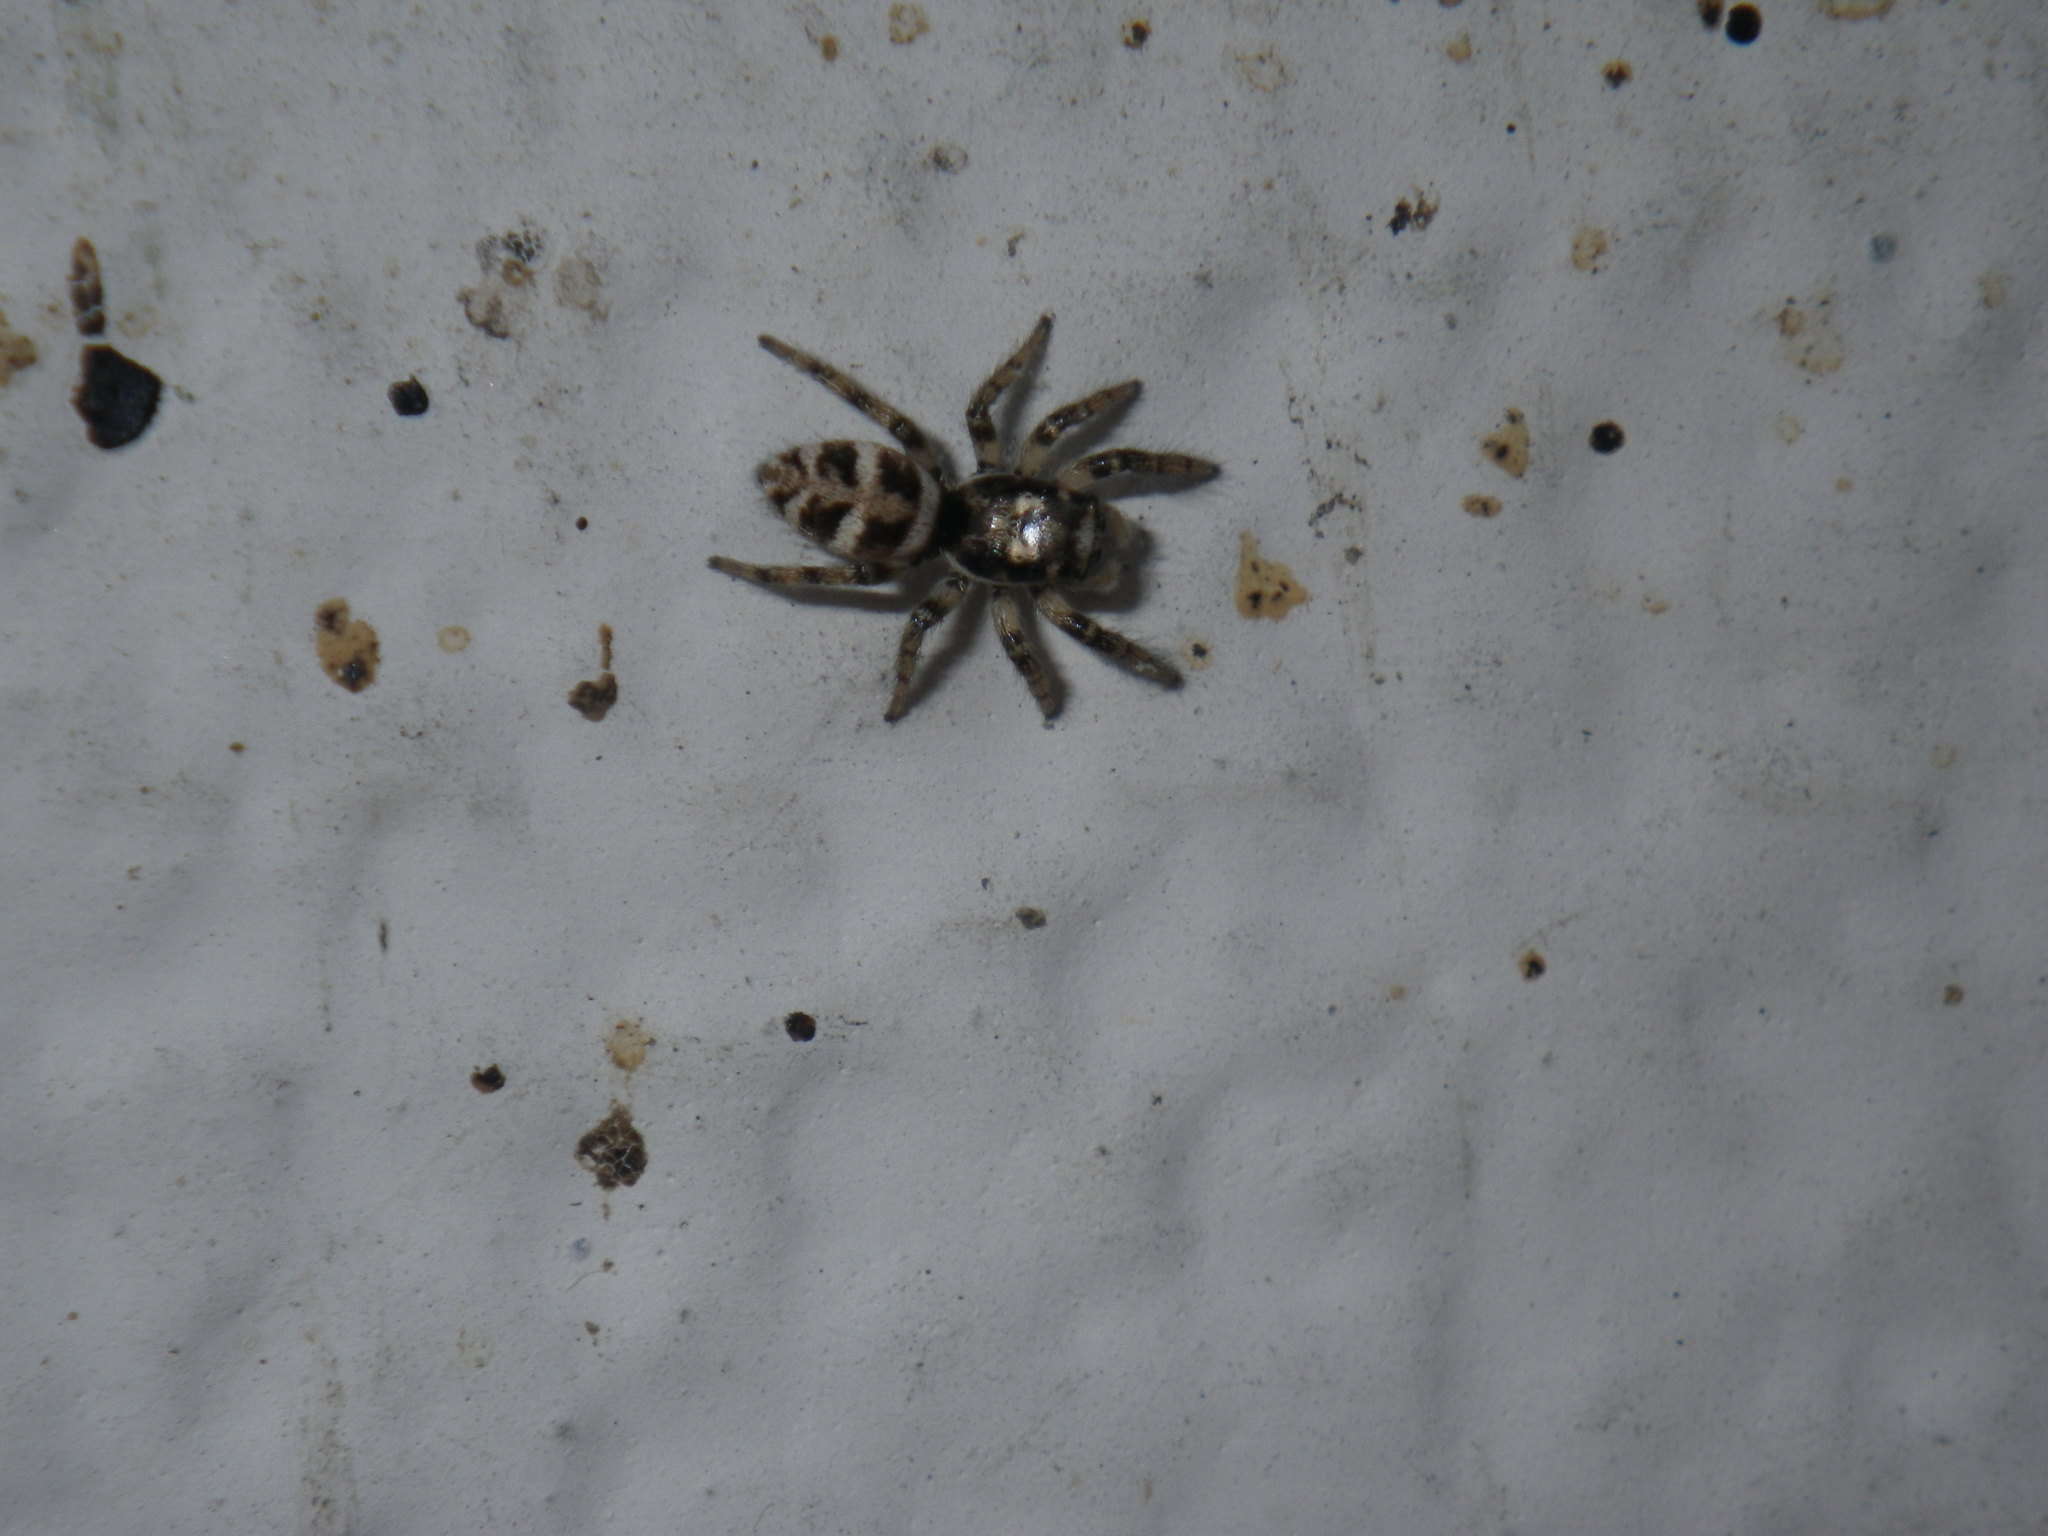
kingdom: Animalia
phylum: Arthropoda
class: Arachnida
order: Araneae
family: Salticidae
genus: Salticus
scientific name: Salticus scenicus
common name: Zebra jumper
